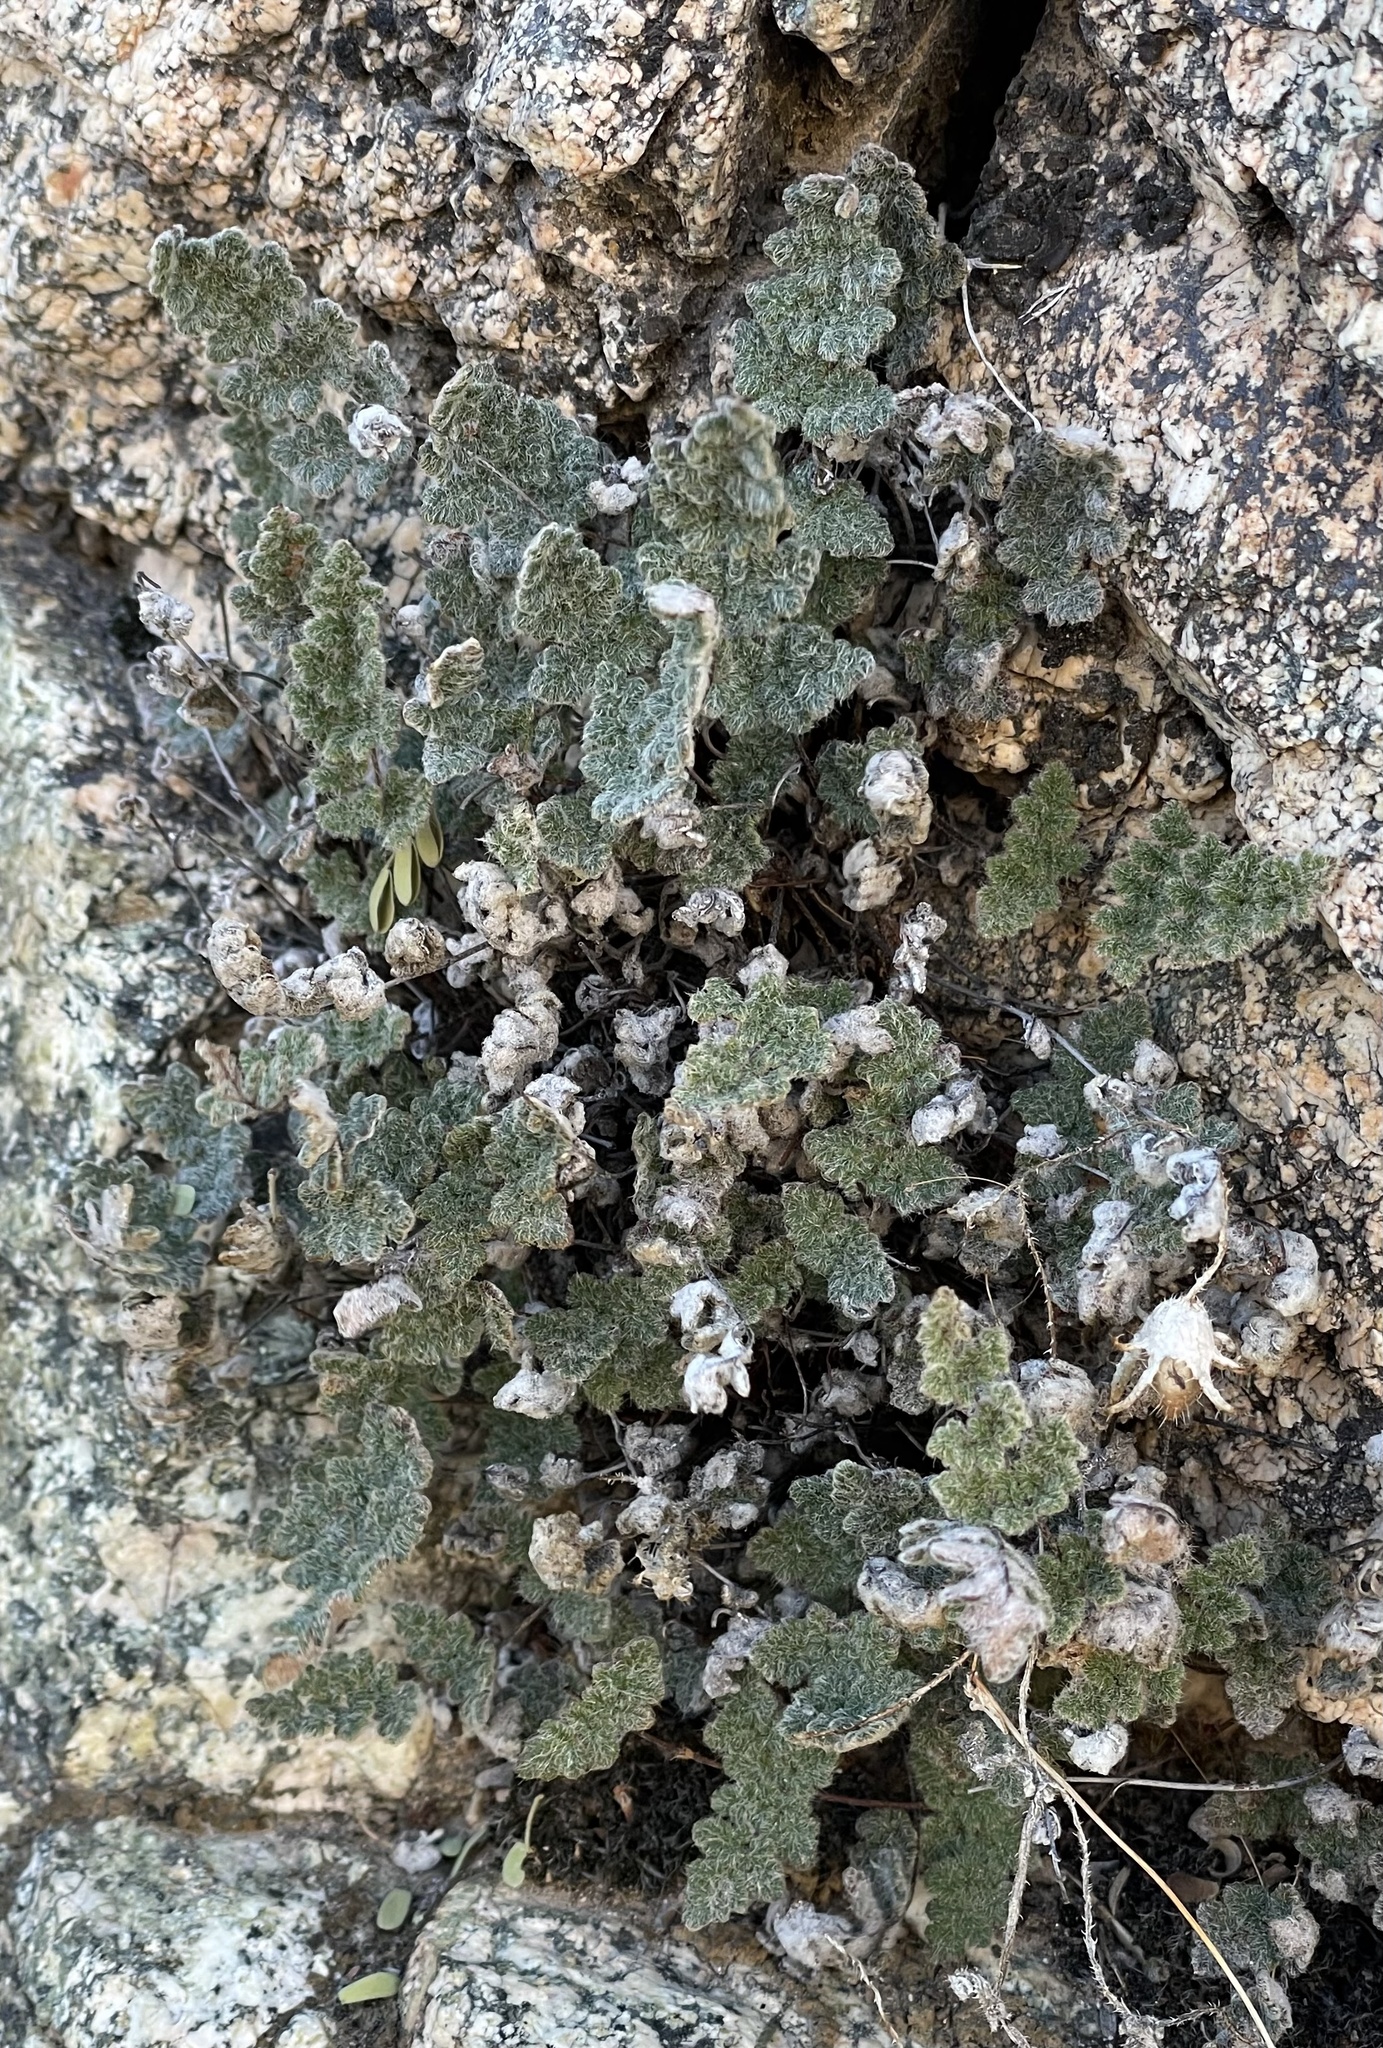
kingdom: Plantae
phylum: Tracheophyta
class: Polypodiopsida
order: Polypodiales
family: Pteridaceae
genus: Myriopteris
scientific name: Myriopteris parryi
